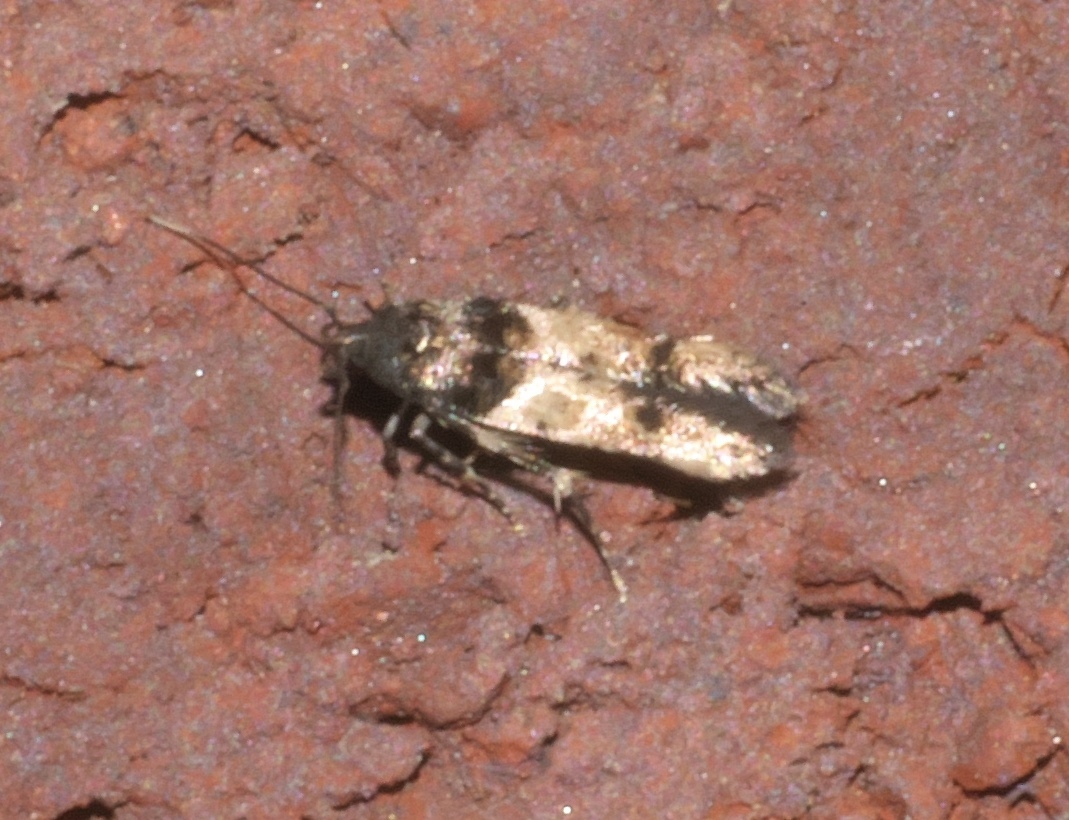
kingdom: Animalia
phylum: Arthropoda
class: Insecta
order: Lepidoptera
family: Cosmopterigidae
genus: Walshia
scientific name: Walshia miscecolorella
